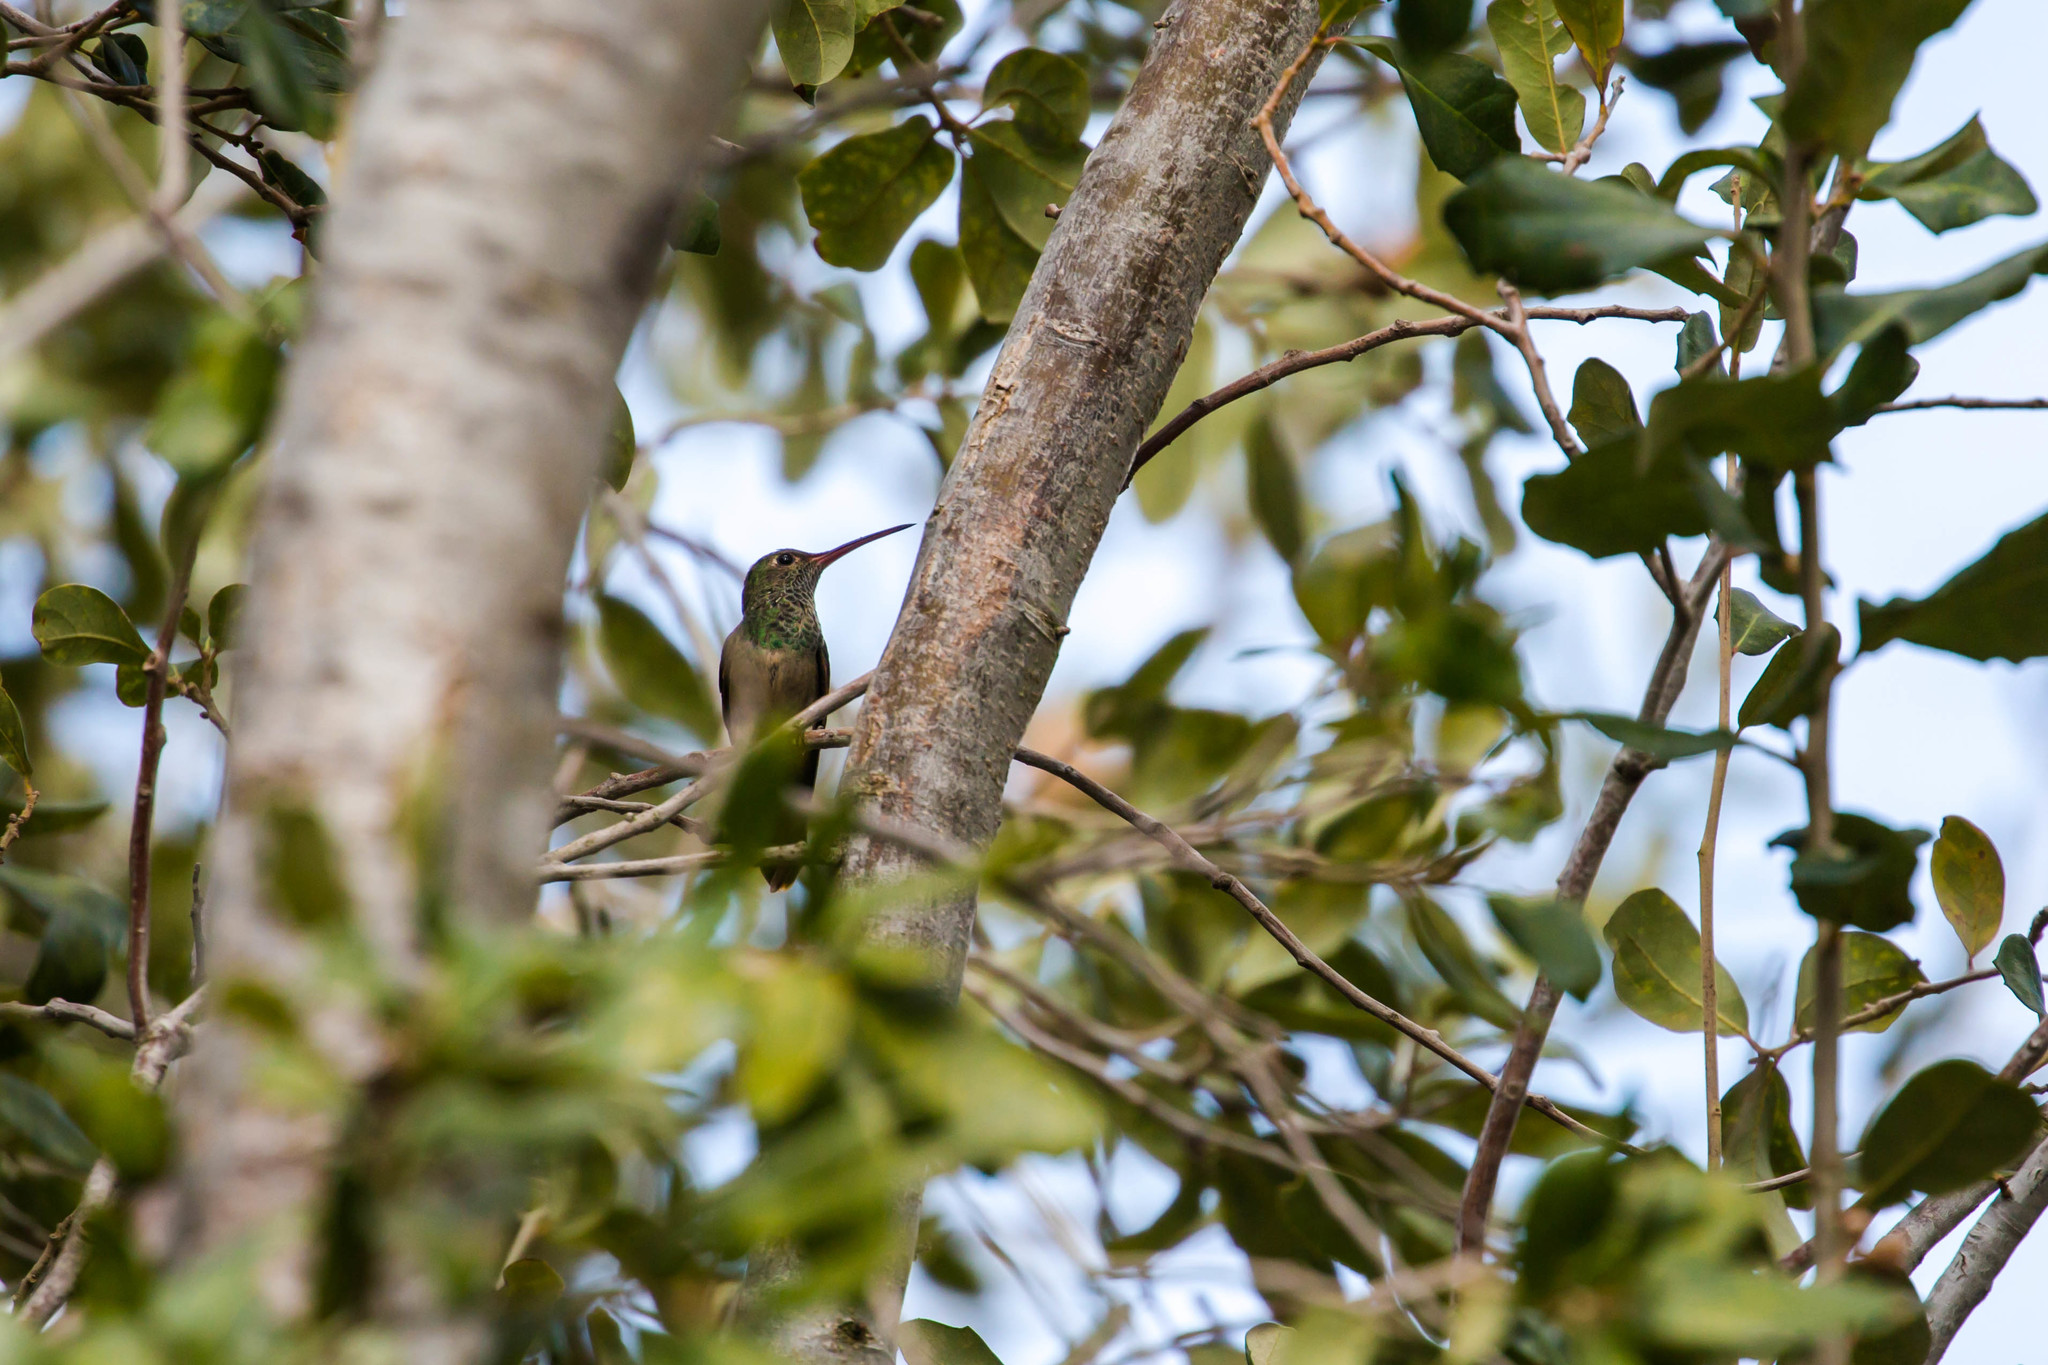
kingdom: Animalia
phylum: Chordata
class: Aves
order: Apodiformes
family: Trochilidae
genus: Amazilia
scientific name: Amazilia yucatanensis
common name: Buff-bellied hummingbird
